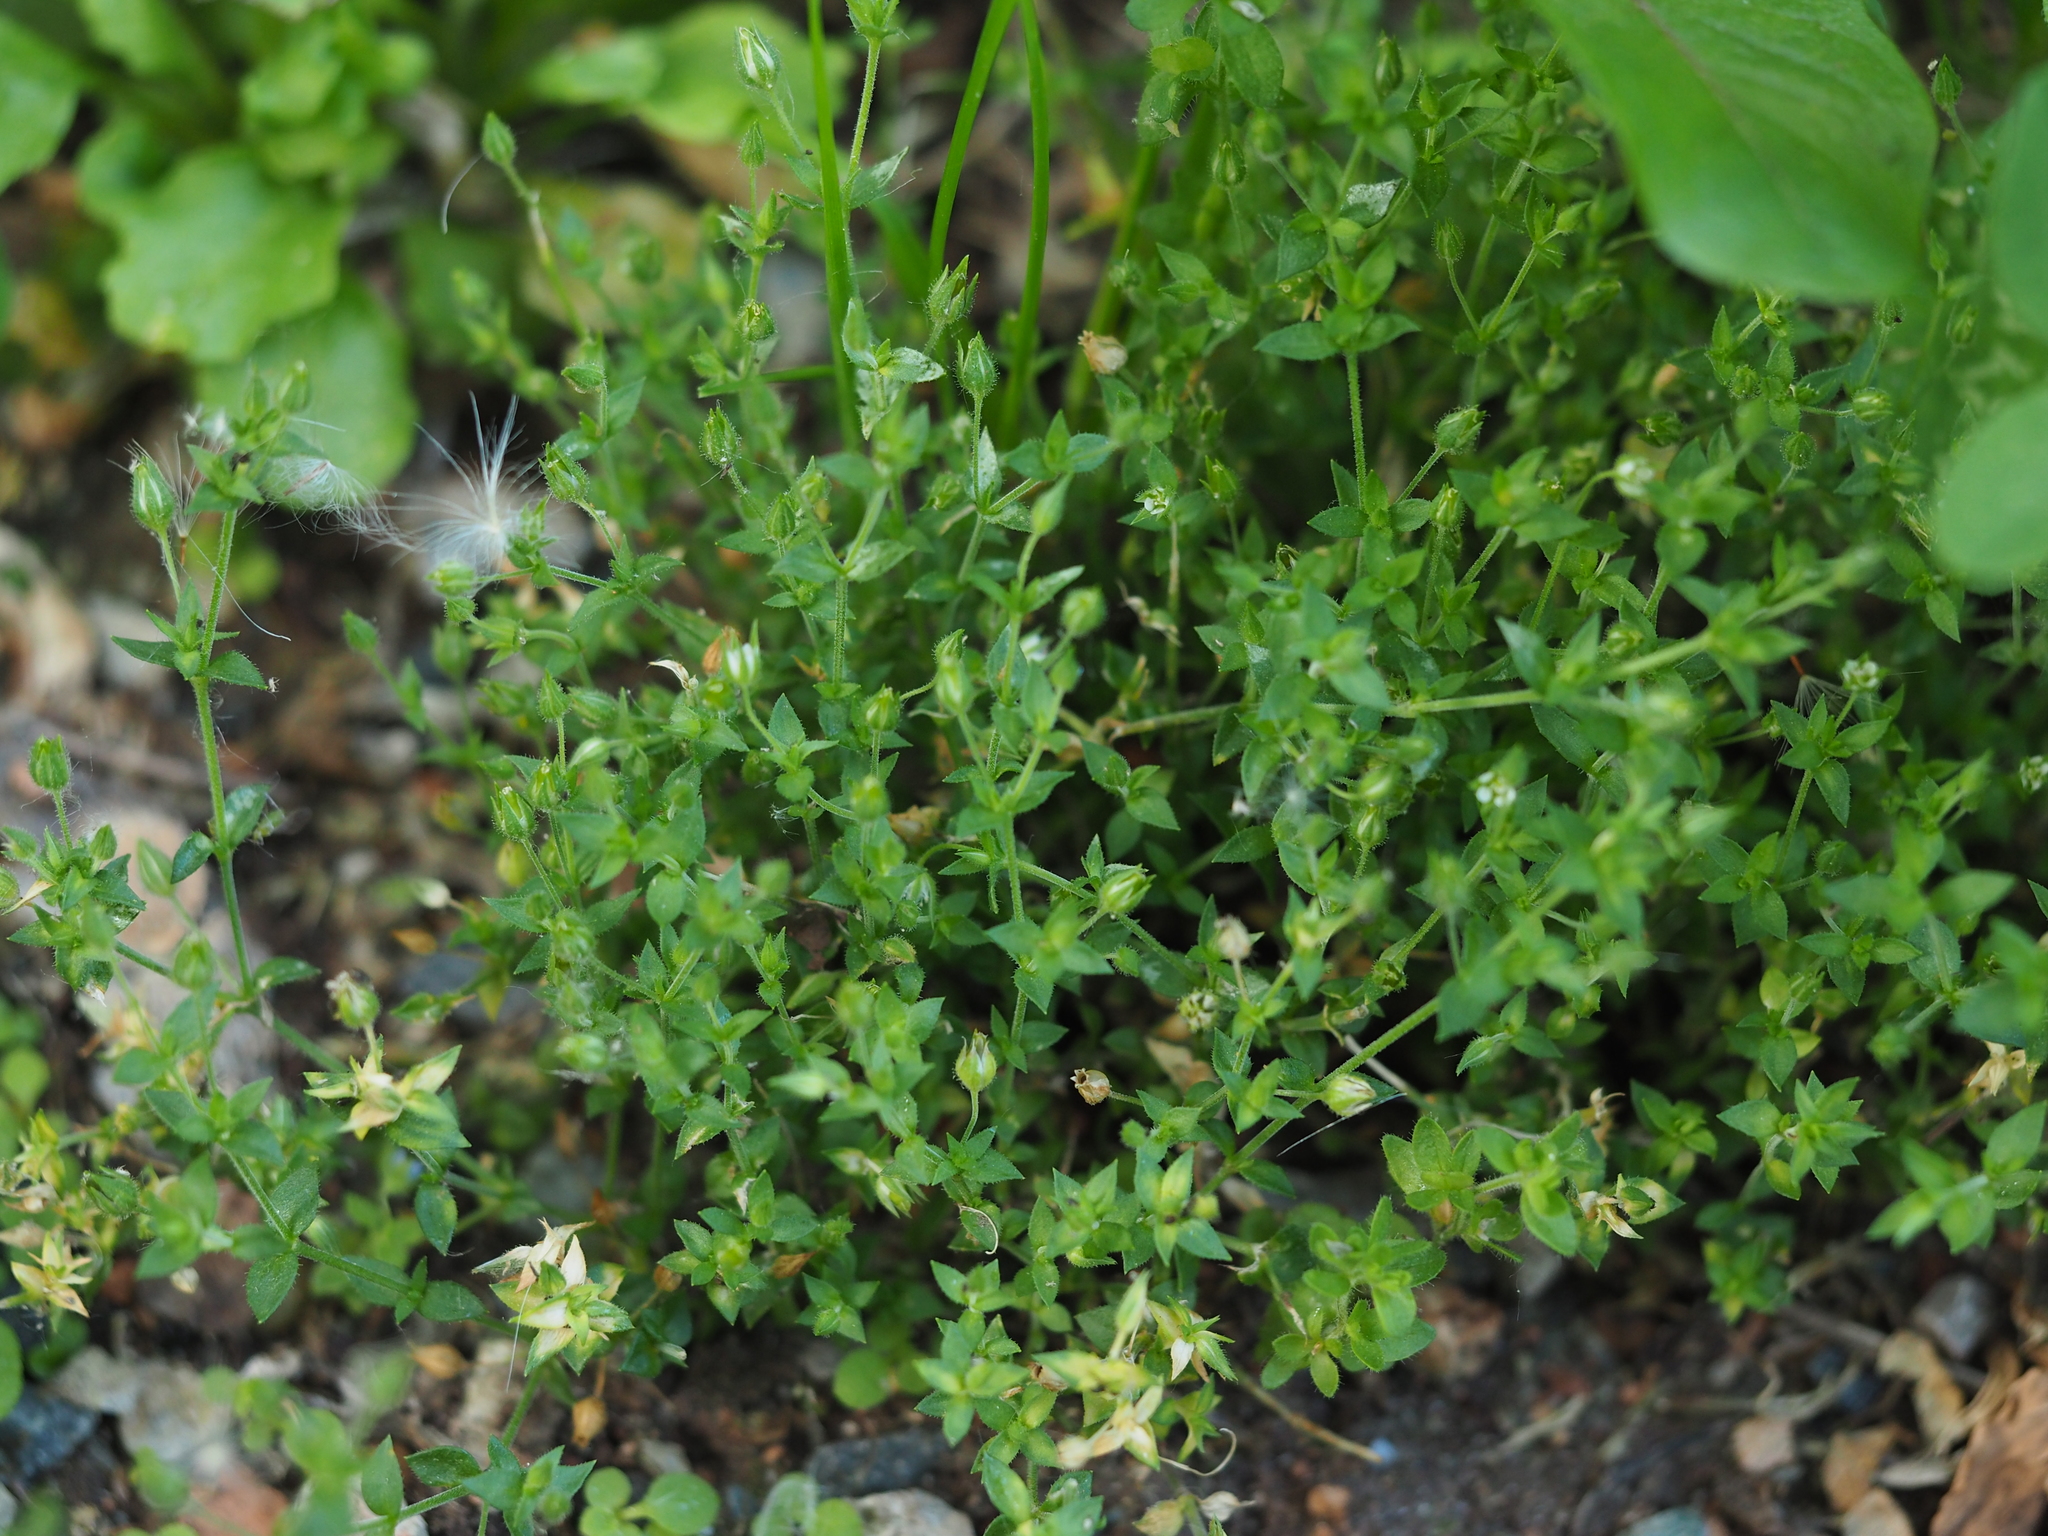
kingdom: Plantae
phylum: Tracheophyta
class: Magnoliopsida
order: Caryophyllales
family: Caryophyllaceae
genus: Arenaria
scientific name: Arenaria serpyllifolia
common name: Thyme-leaved sandwort
